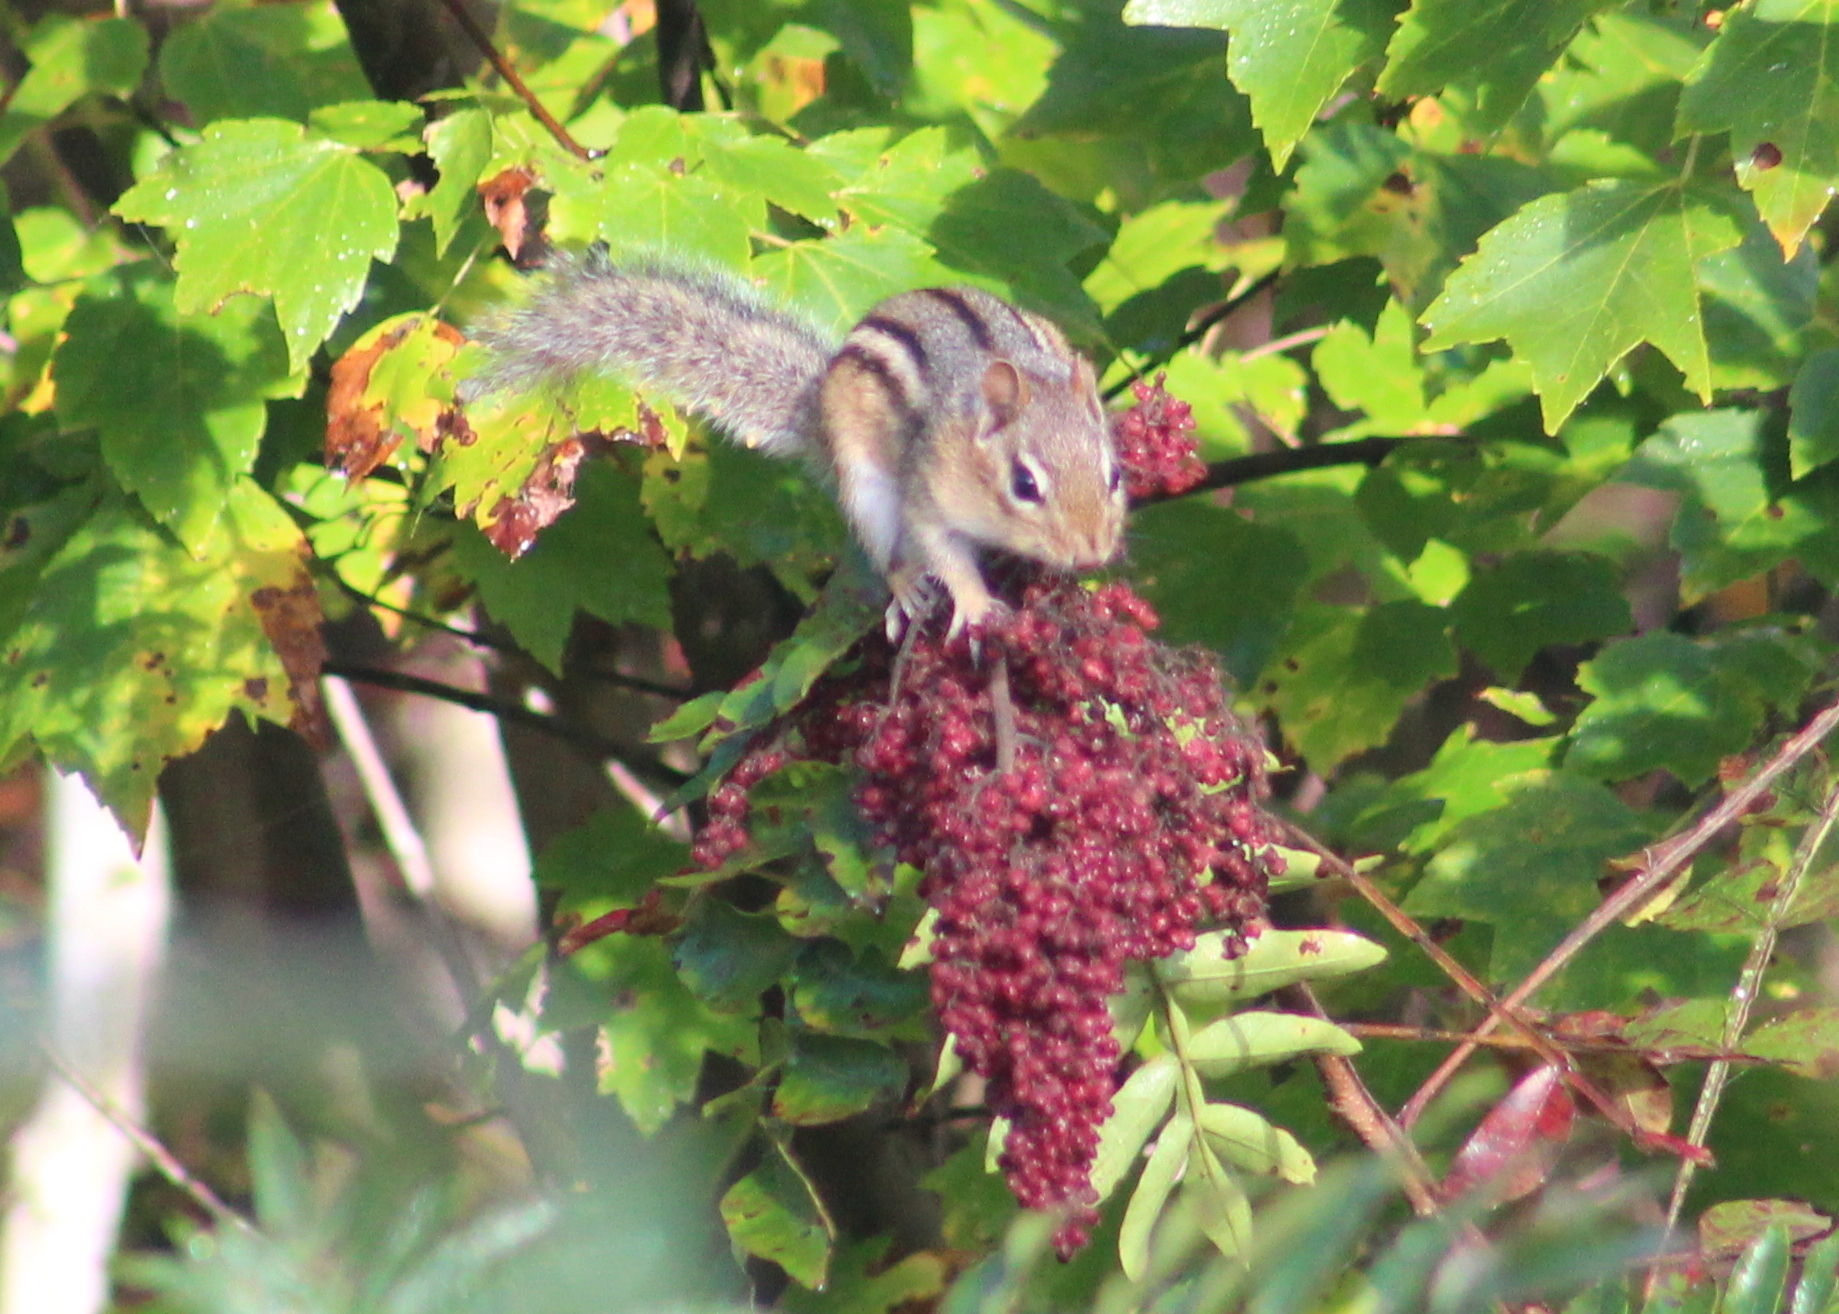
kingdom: Animalia
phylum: Chordata
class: Mammalia
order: Rodentia
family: Sciuridae
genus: Tamias
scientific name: Tamias striatus
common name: Eastern chipmunk
